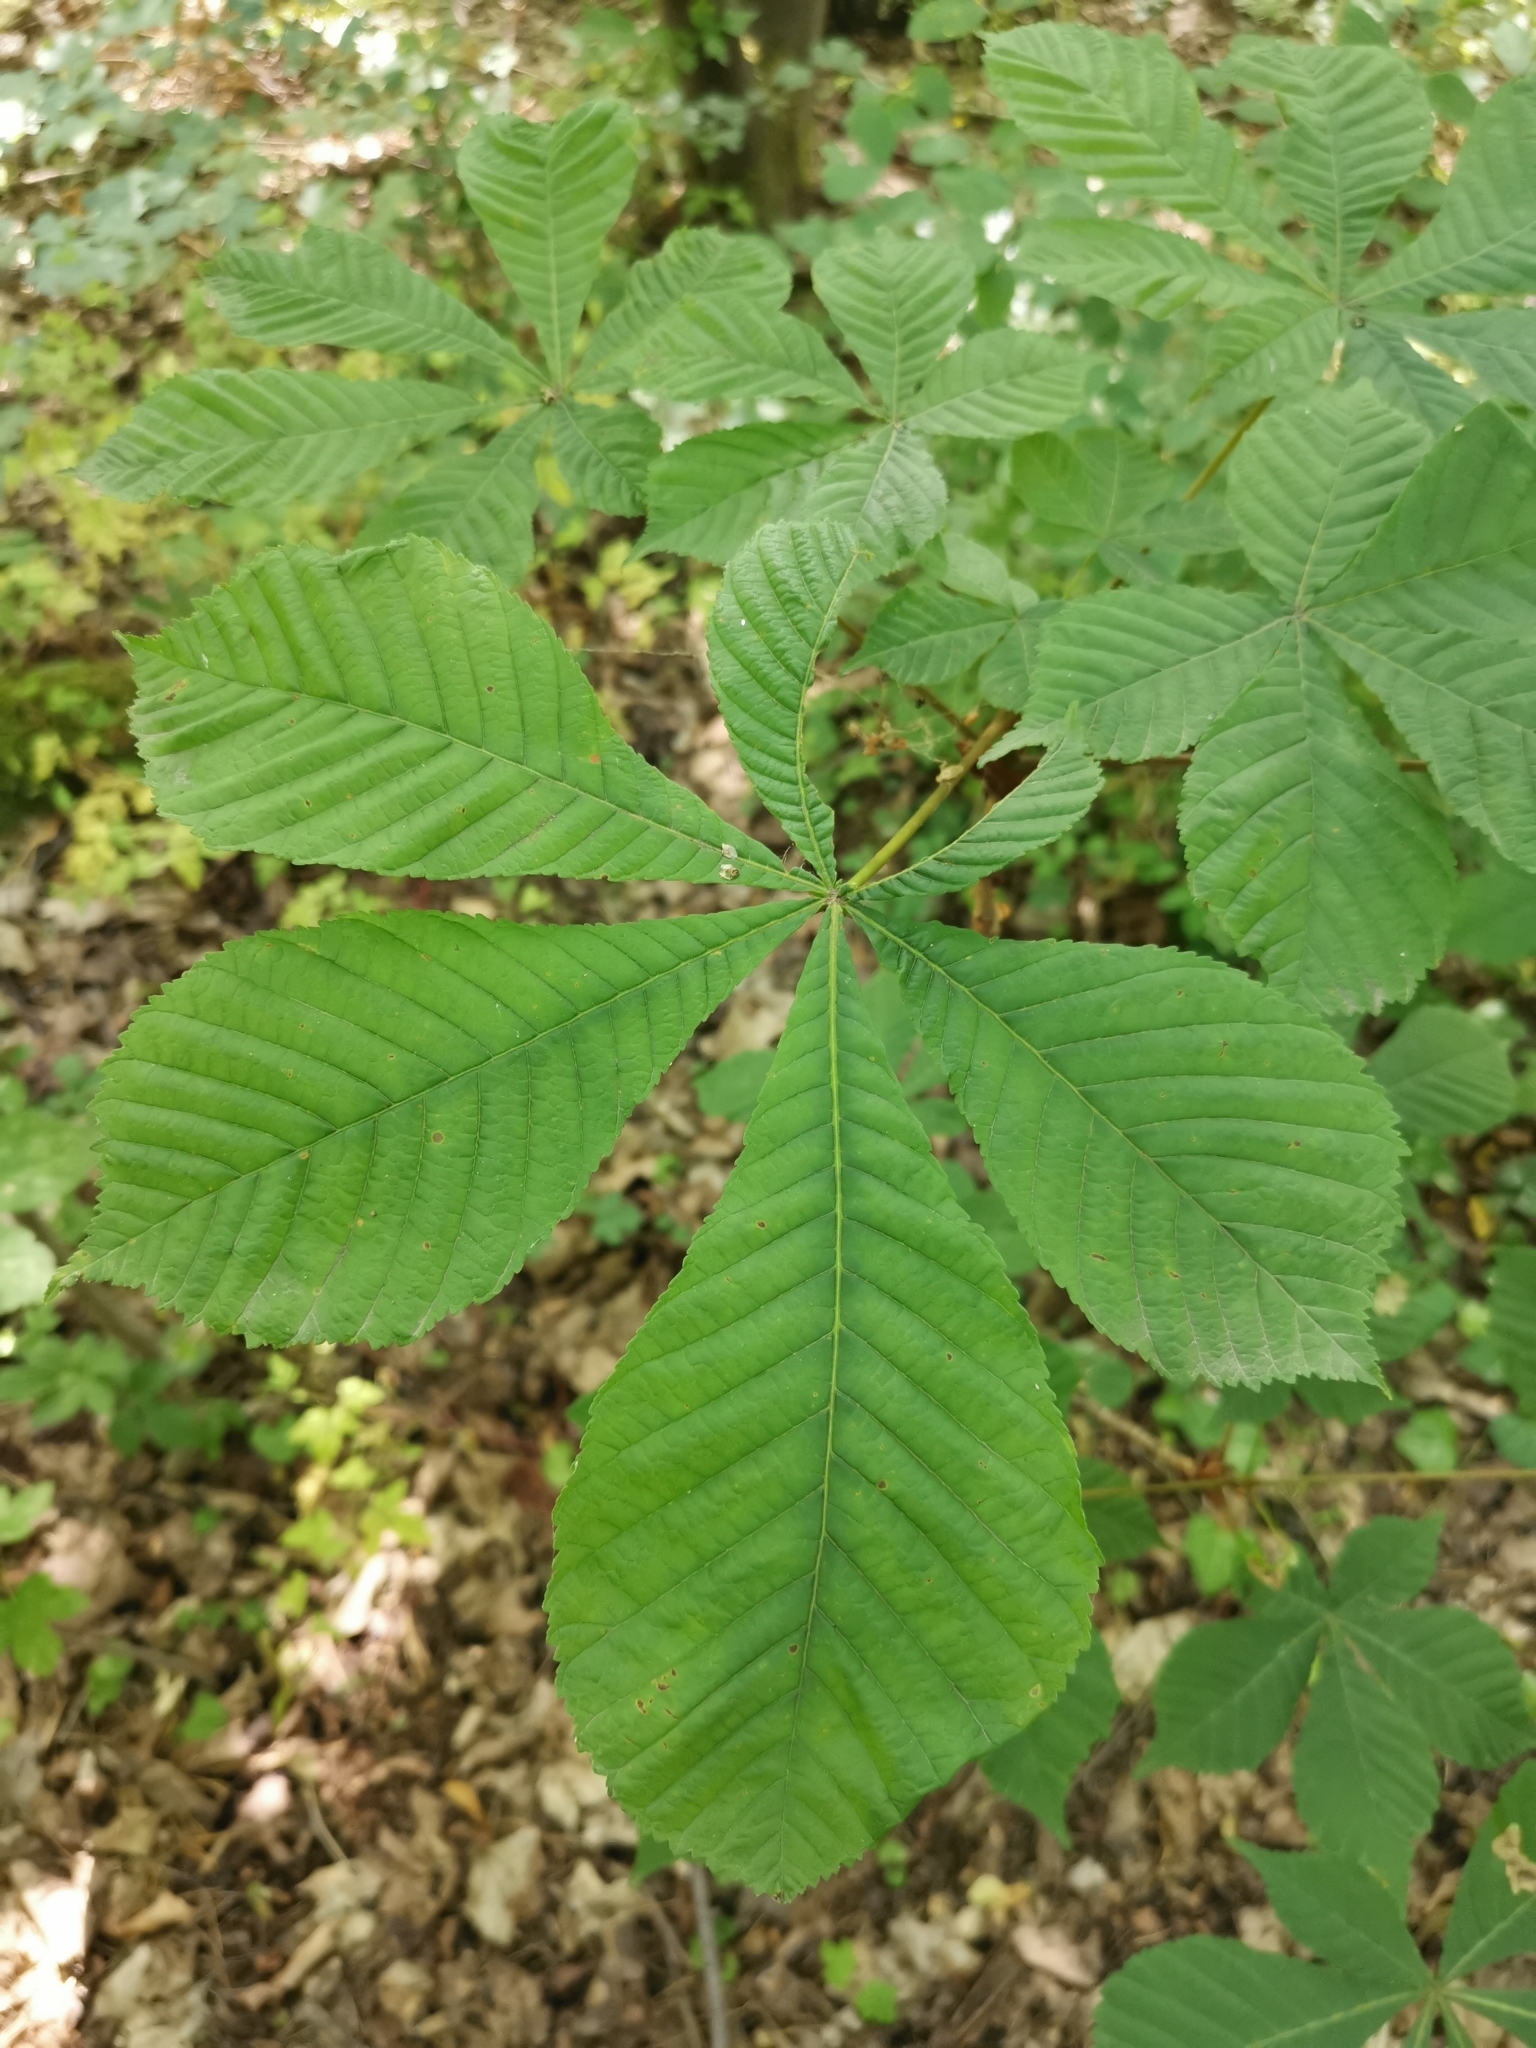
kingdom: Plantae
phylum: Tracheophyta
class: Magnoliopsida
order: Sapindales
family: Sapindaceae
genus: Aesculus
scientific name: Aesculus hippocastanum
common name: Horse-chestnut
